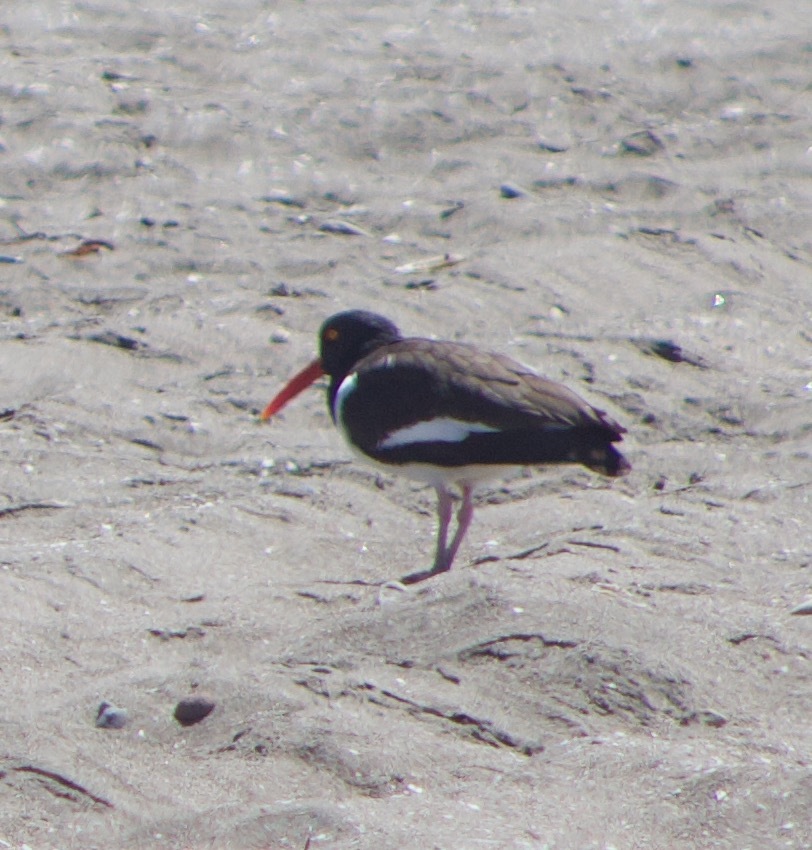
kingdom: Animalia
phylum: Chordata
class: Aves
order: Charadriiformes
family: Haematopodidae
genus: Haematopus
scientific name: Haematopus palliatus
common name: American oystercatcher
